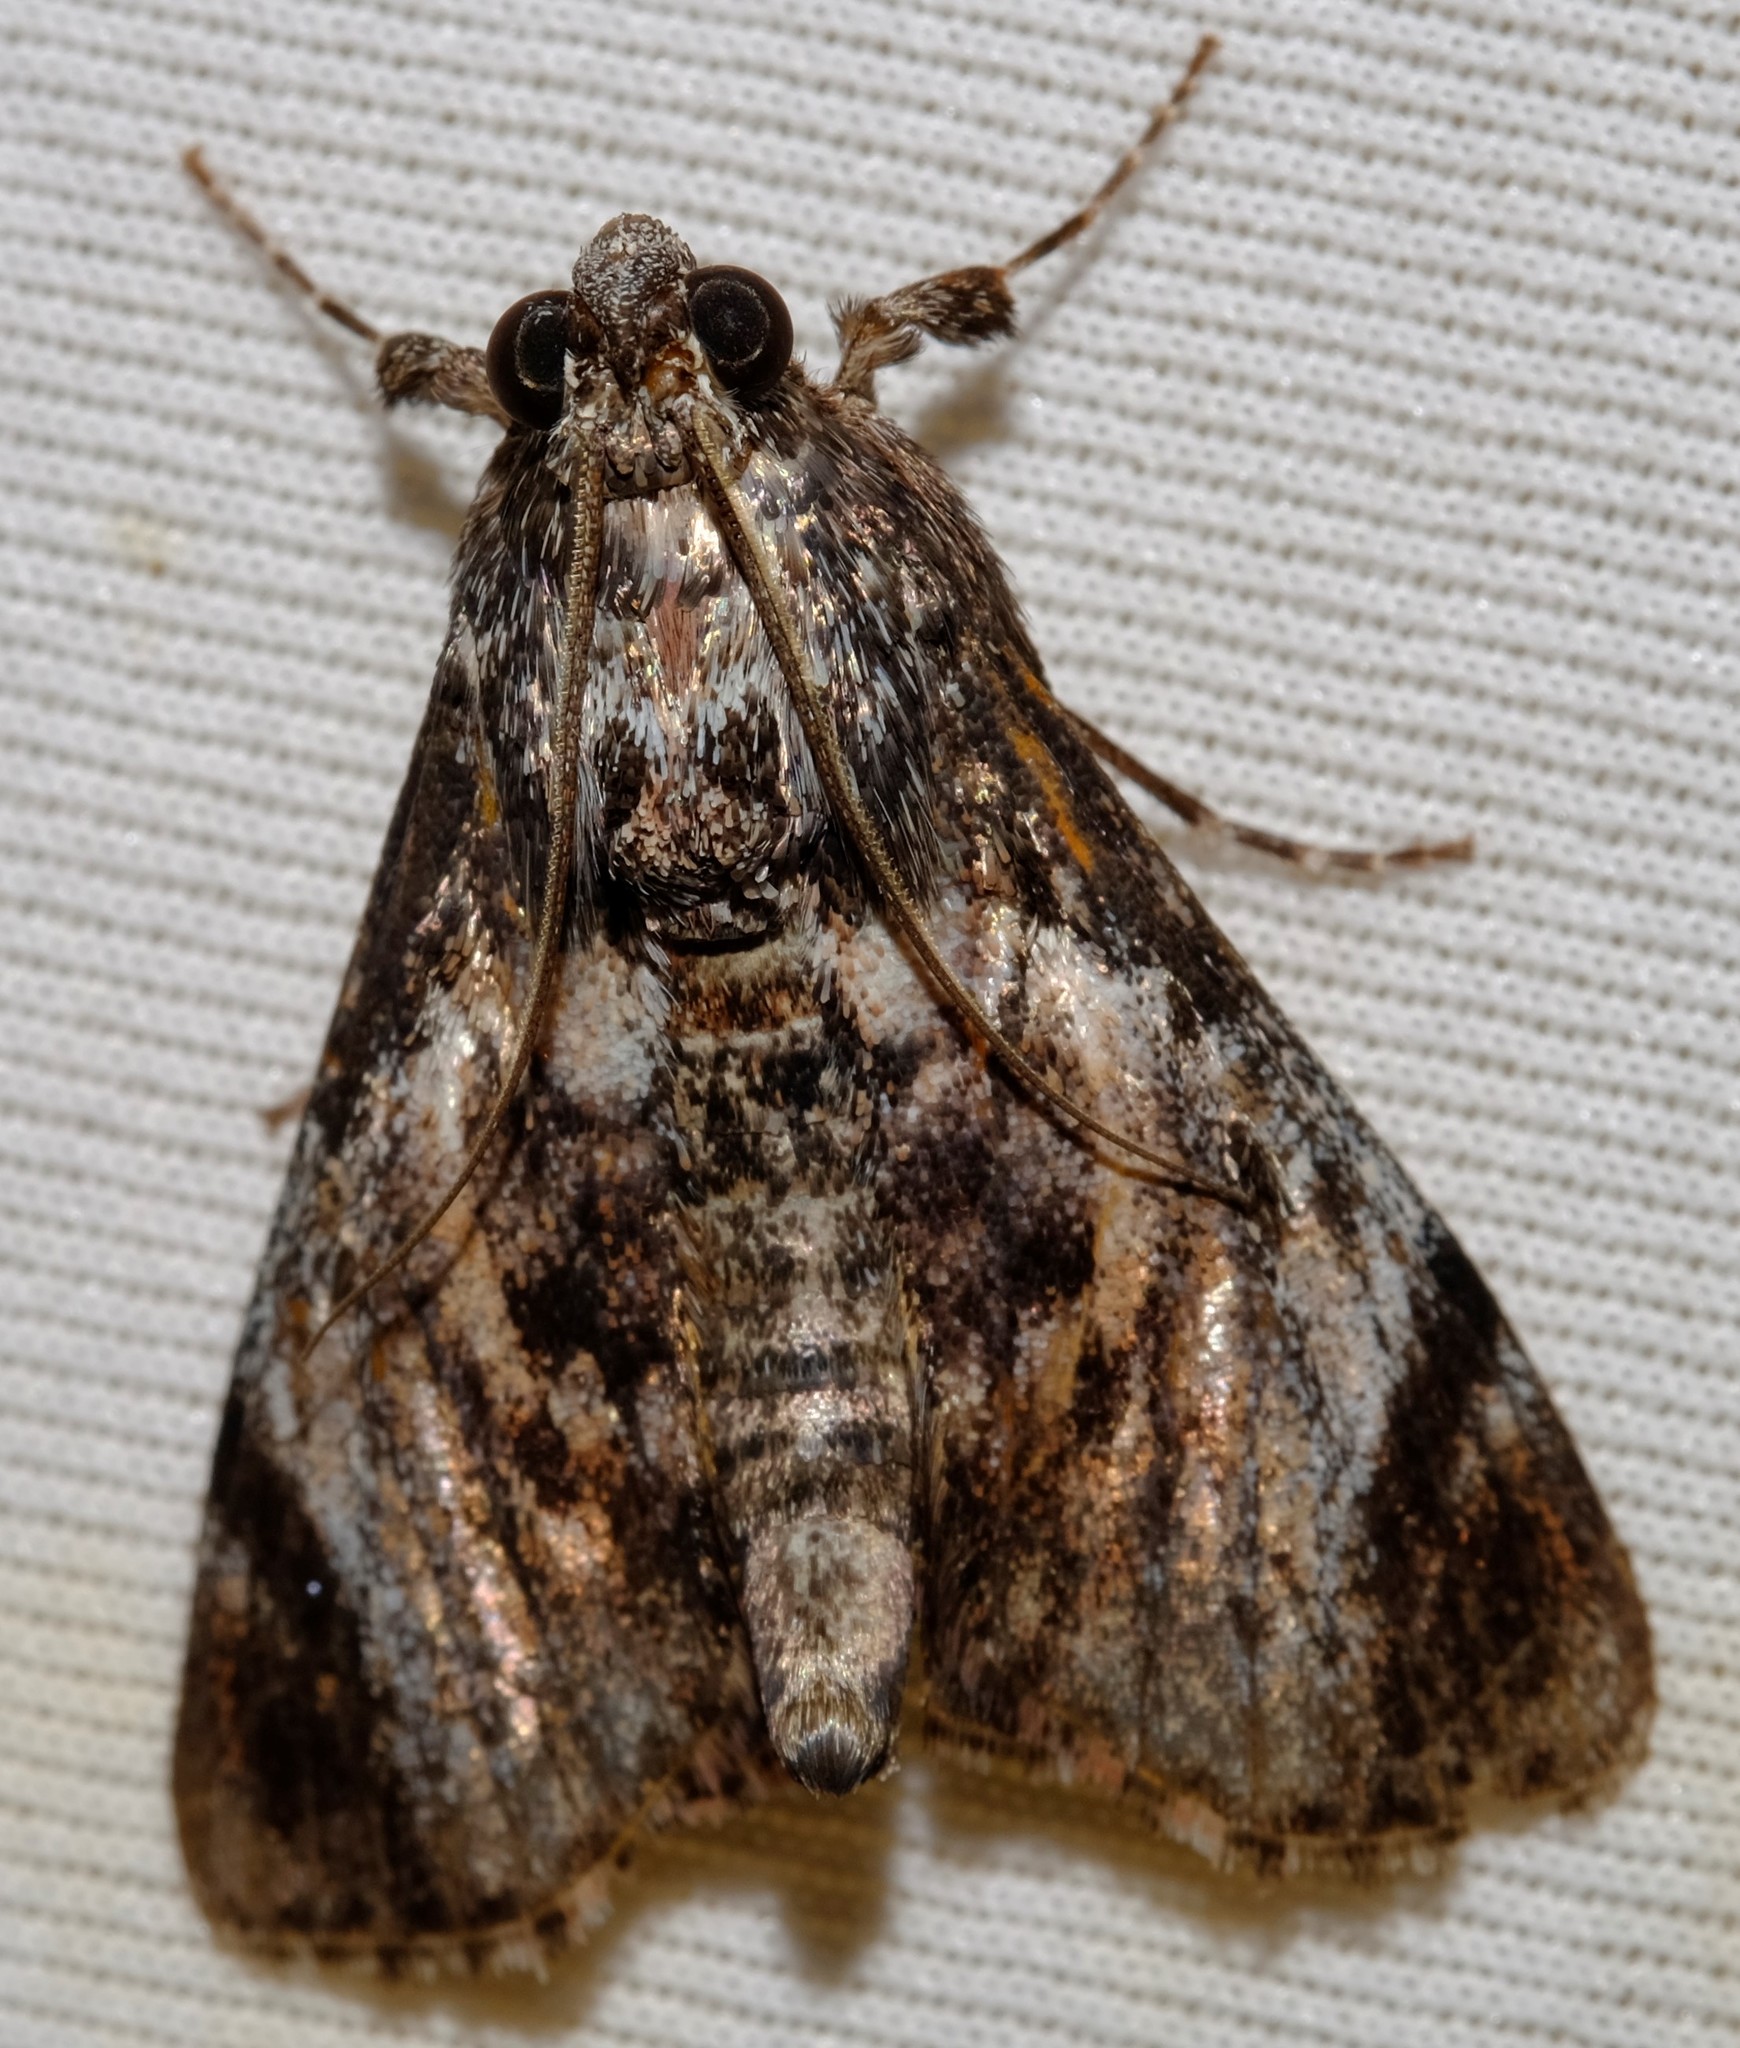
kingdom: Animalia
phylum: Arthropoda
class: Insecta
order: Lepidoptera
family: Pyralidae
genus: Salma
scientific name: Salma pyrastis
